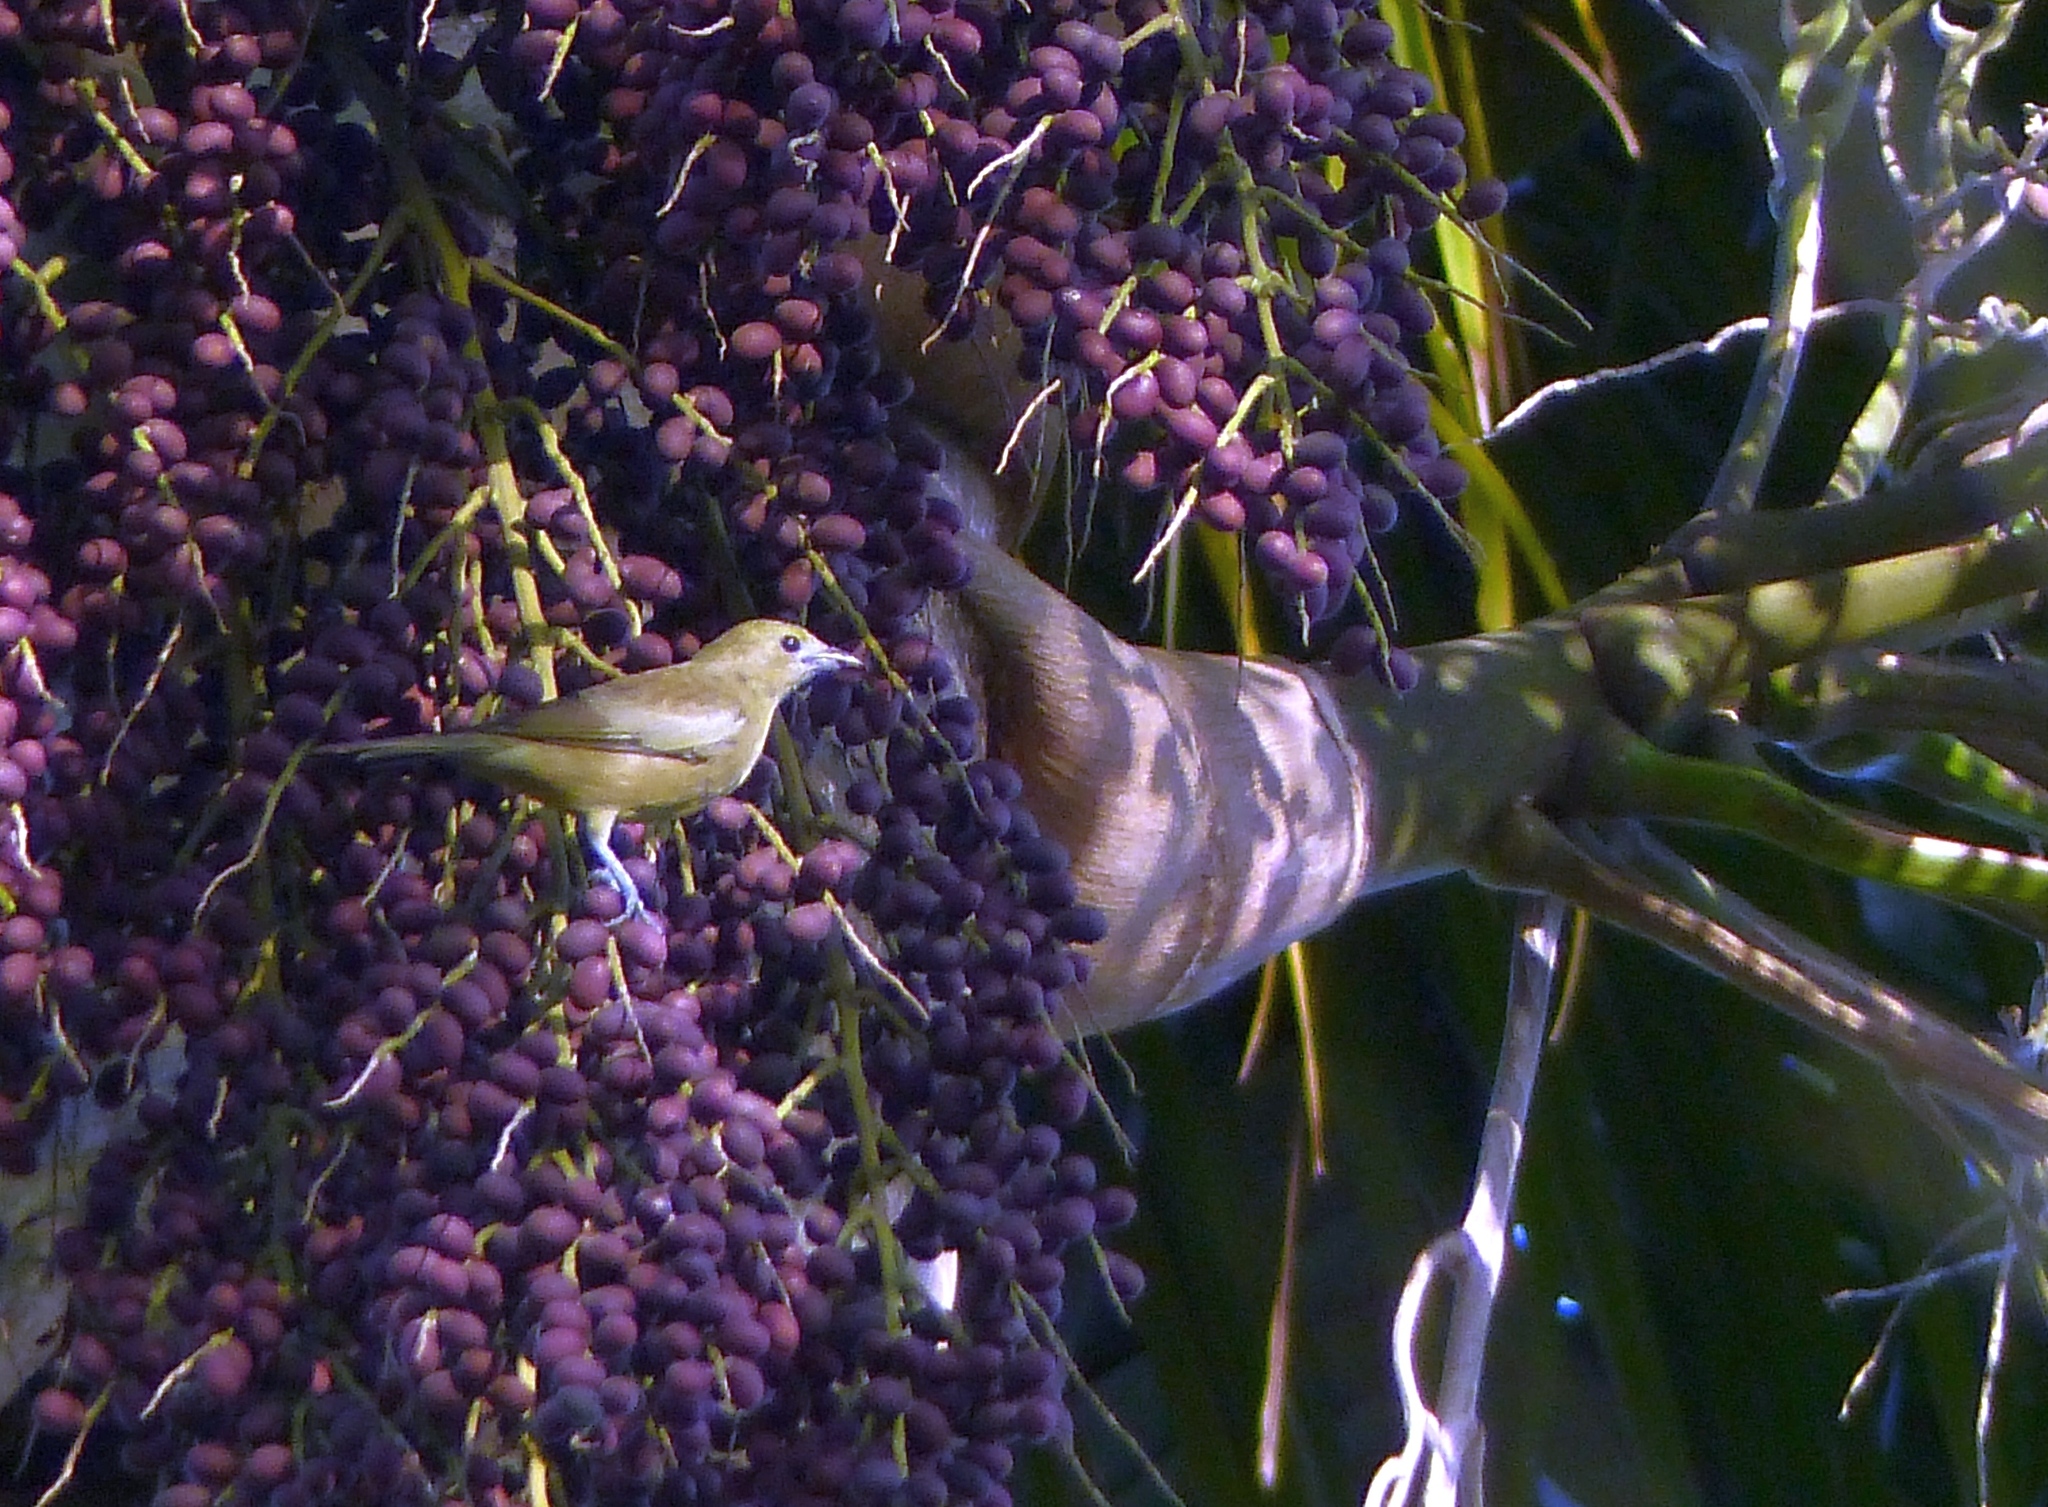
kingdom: Animalia
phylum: Chordata
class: Aves
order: Passeriformes
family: Thraupidae
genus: Thraupis
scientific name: Thraupis palmarum
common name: Palm tanager
